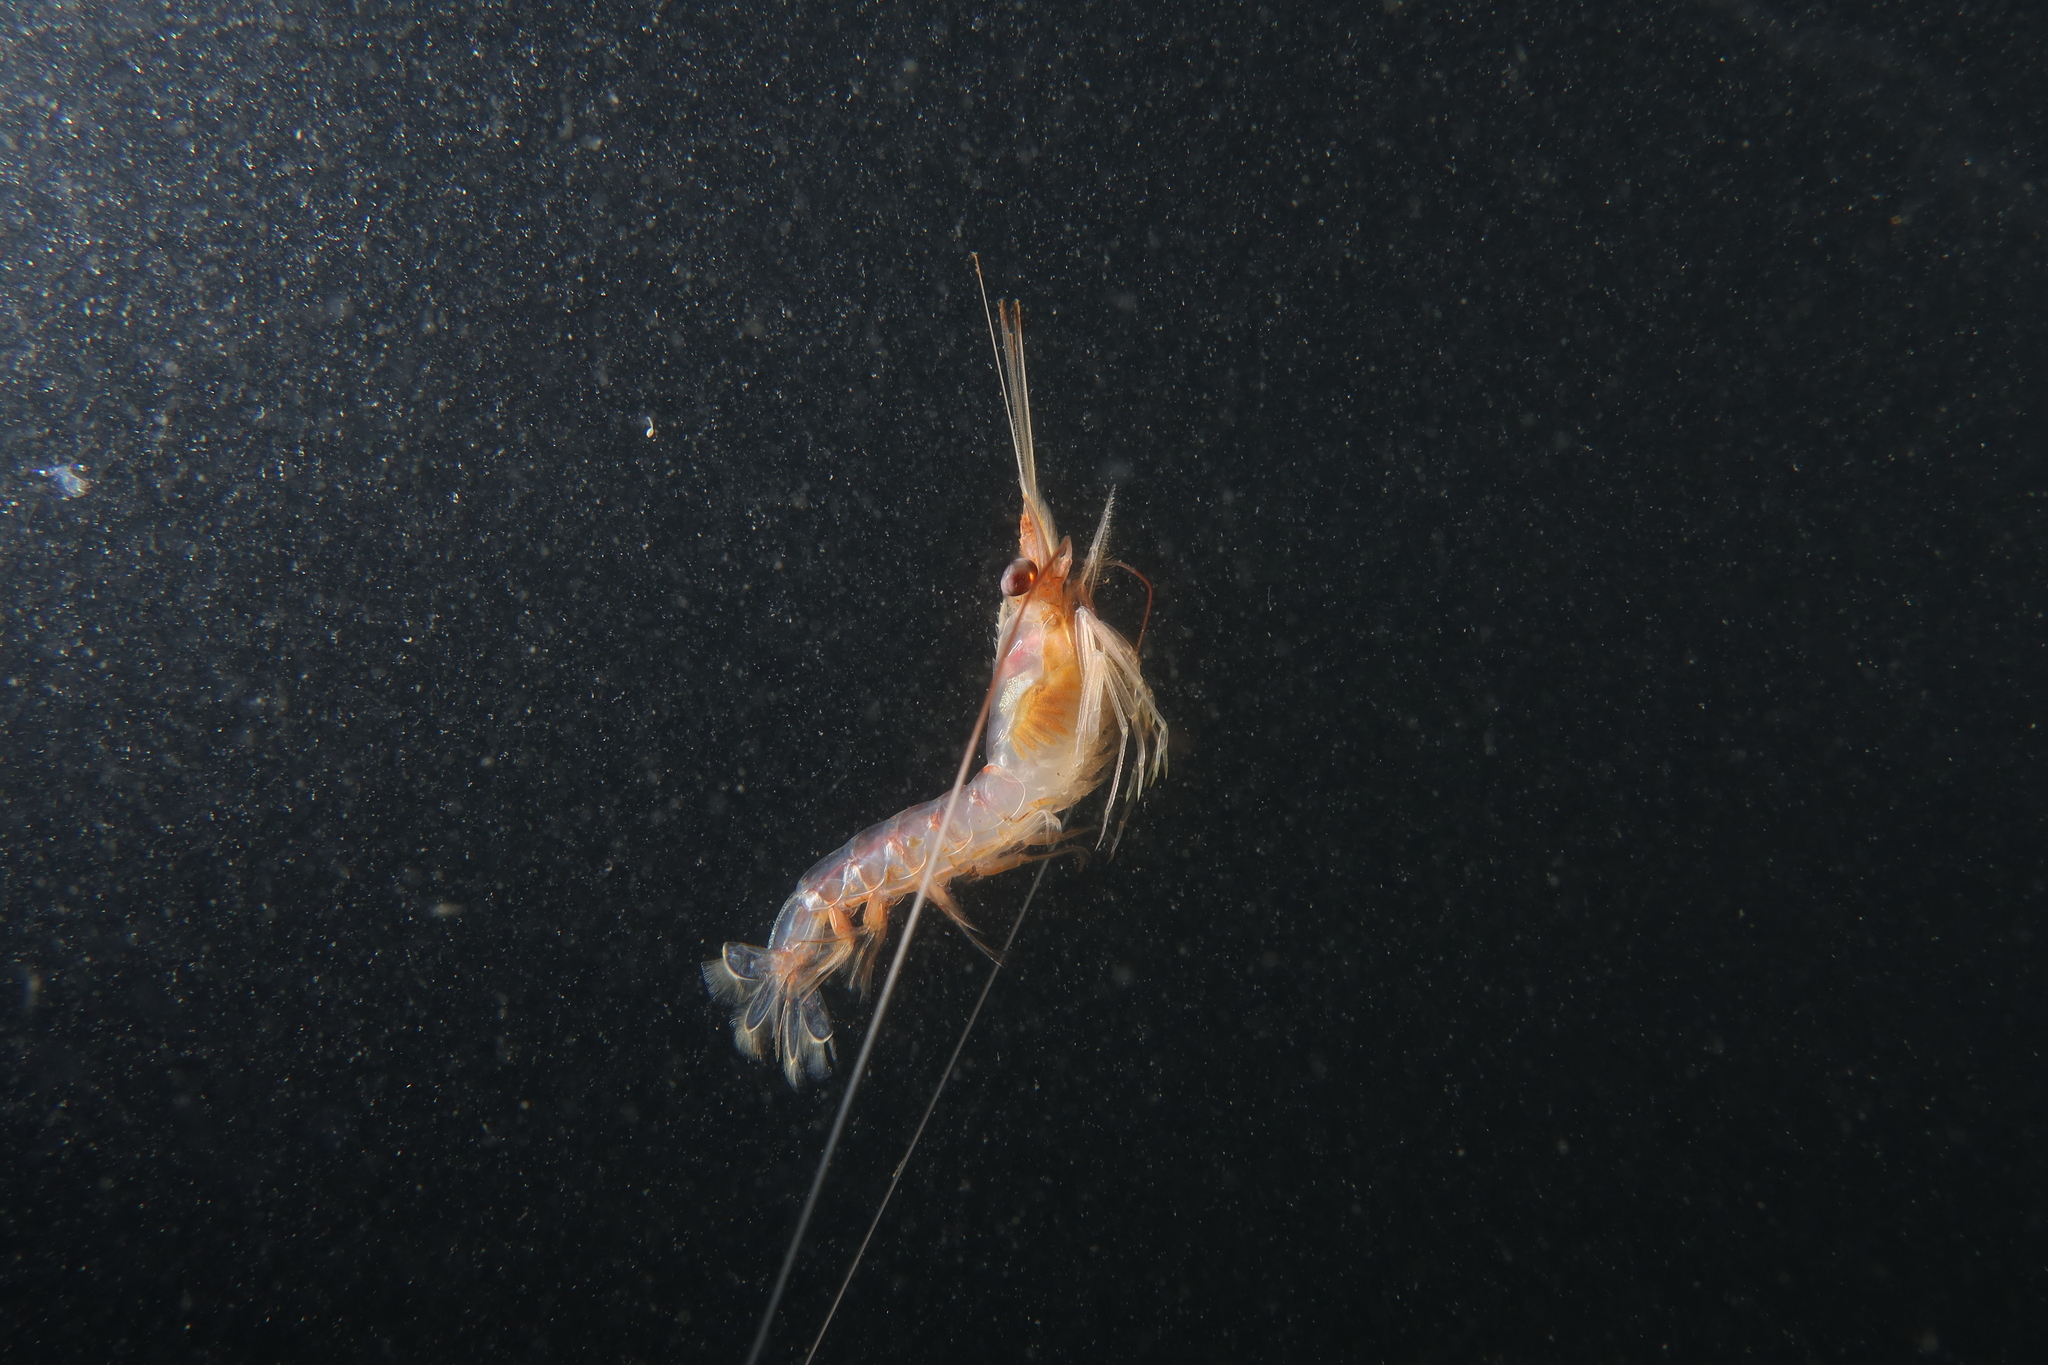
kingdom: Animalia
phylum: Arthropoda
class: Malacostraca
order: Decapoda
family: Solenoceridae
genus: Solenocera
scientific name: Solenocera membranacea
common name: Atlantic mud shrimp
